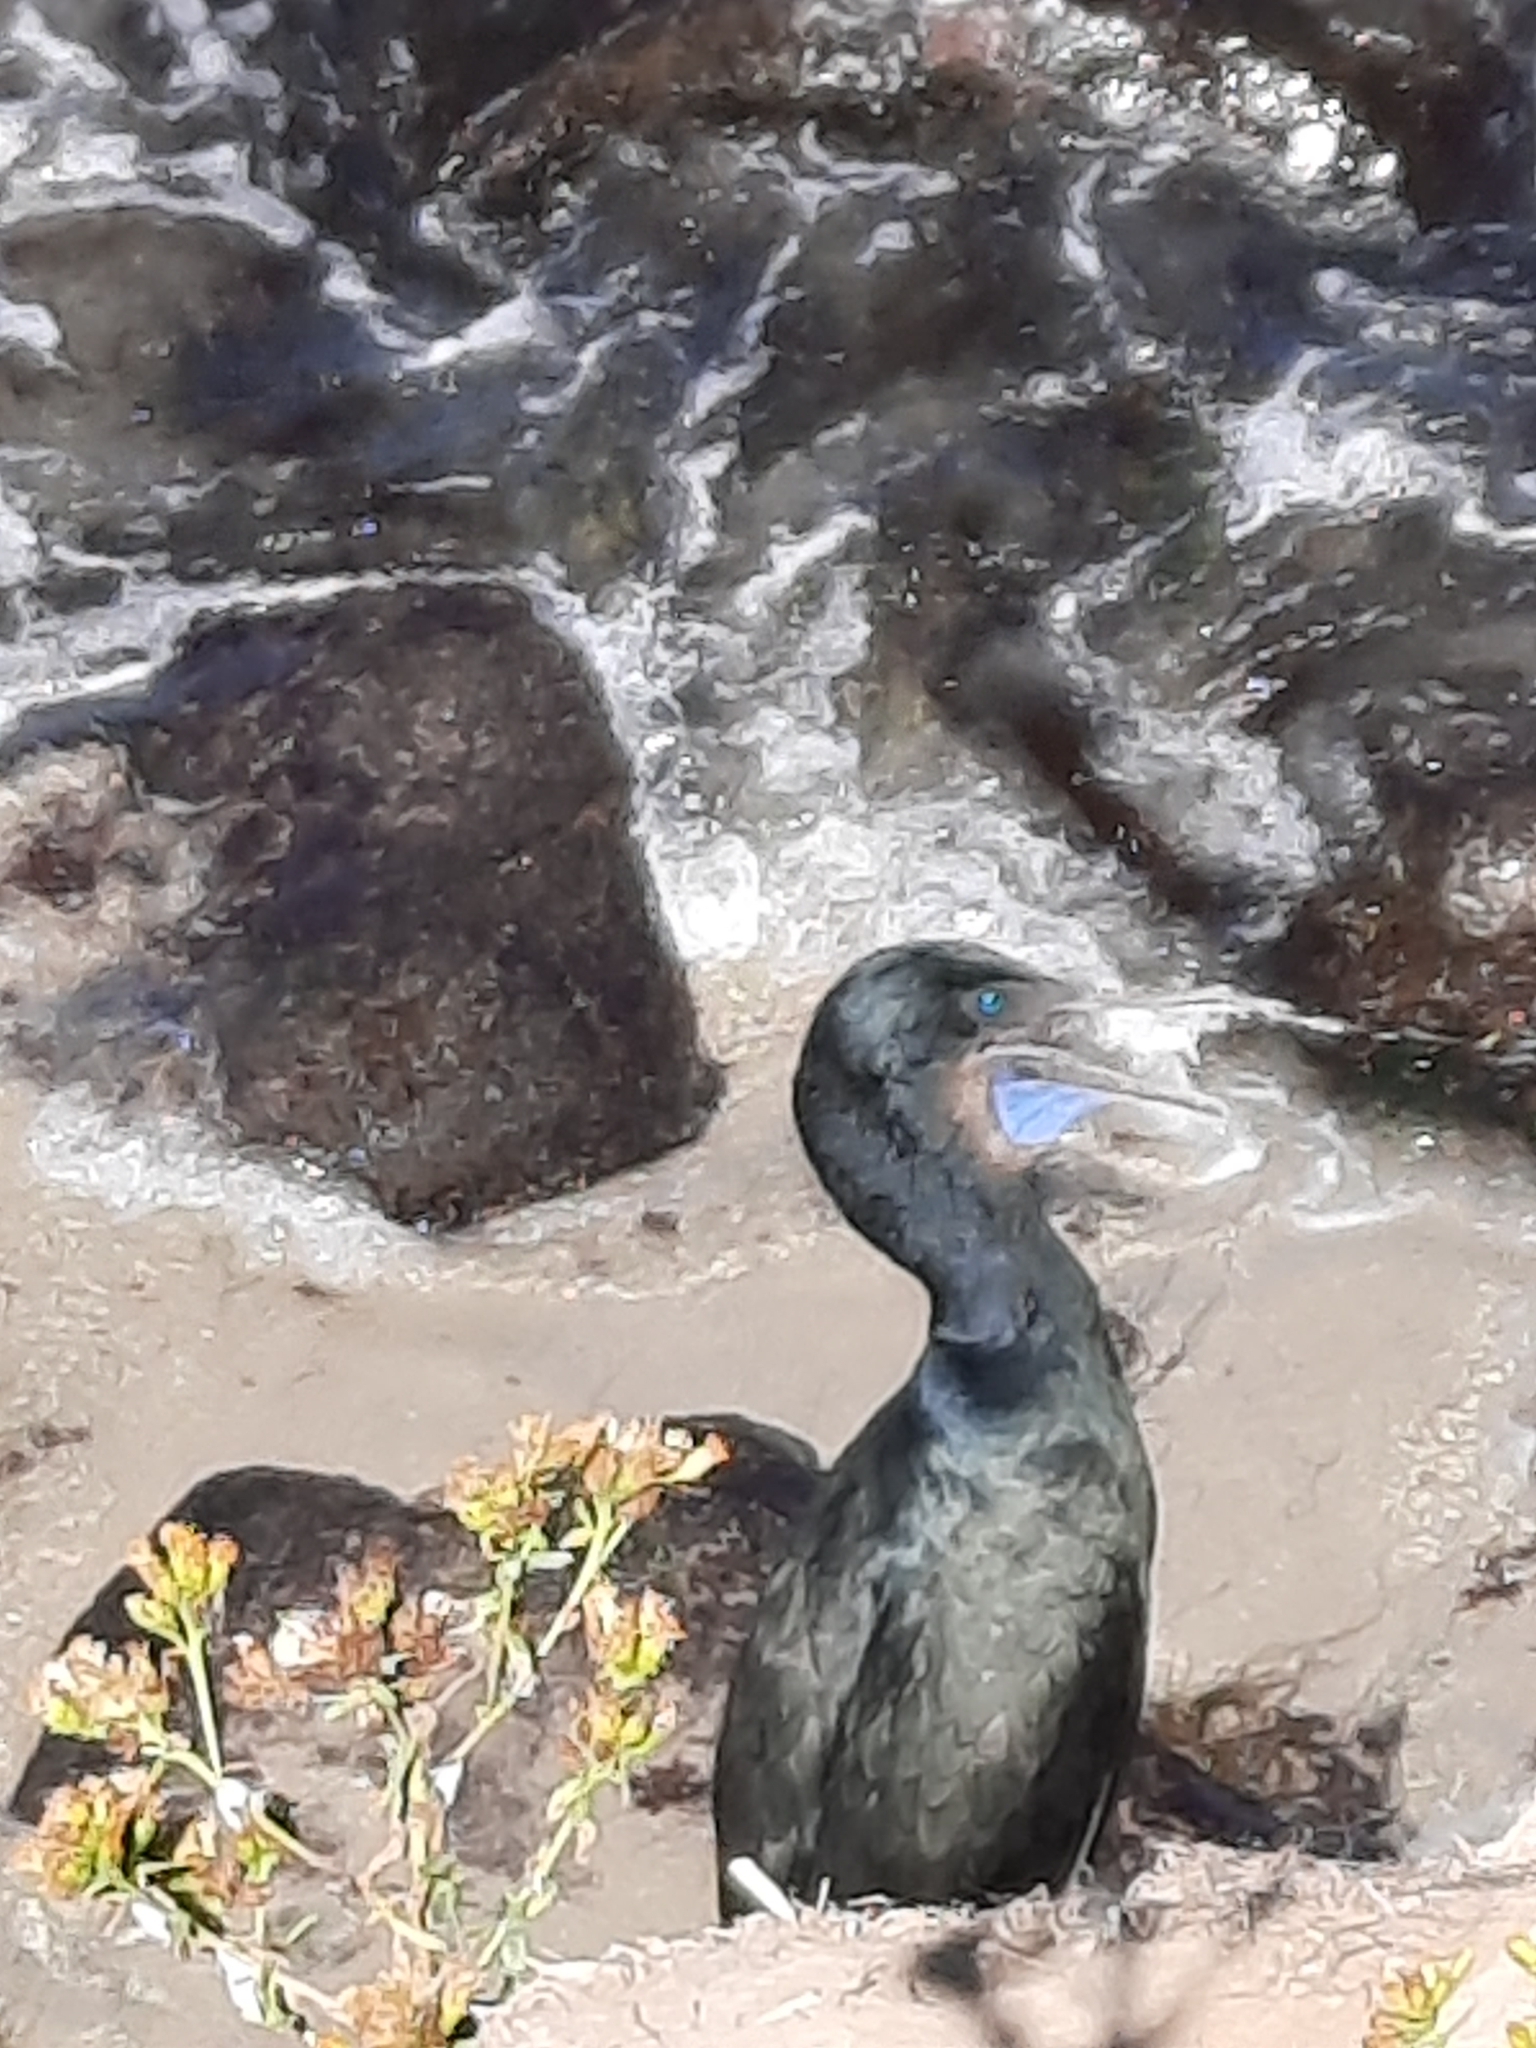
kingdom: Animalia
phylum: Chordata
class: Aves
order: Suliformes
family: Phalacrocoracidae
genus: Urile
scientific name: Urile penicillatus
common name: Brandt's cormorant
